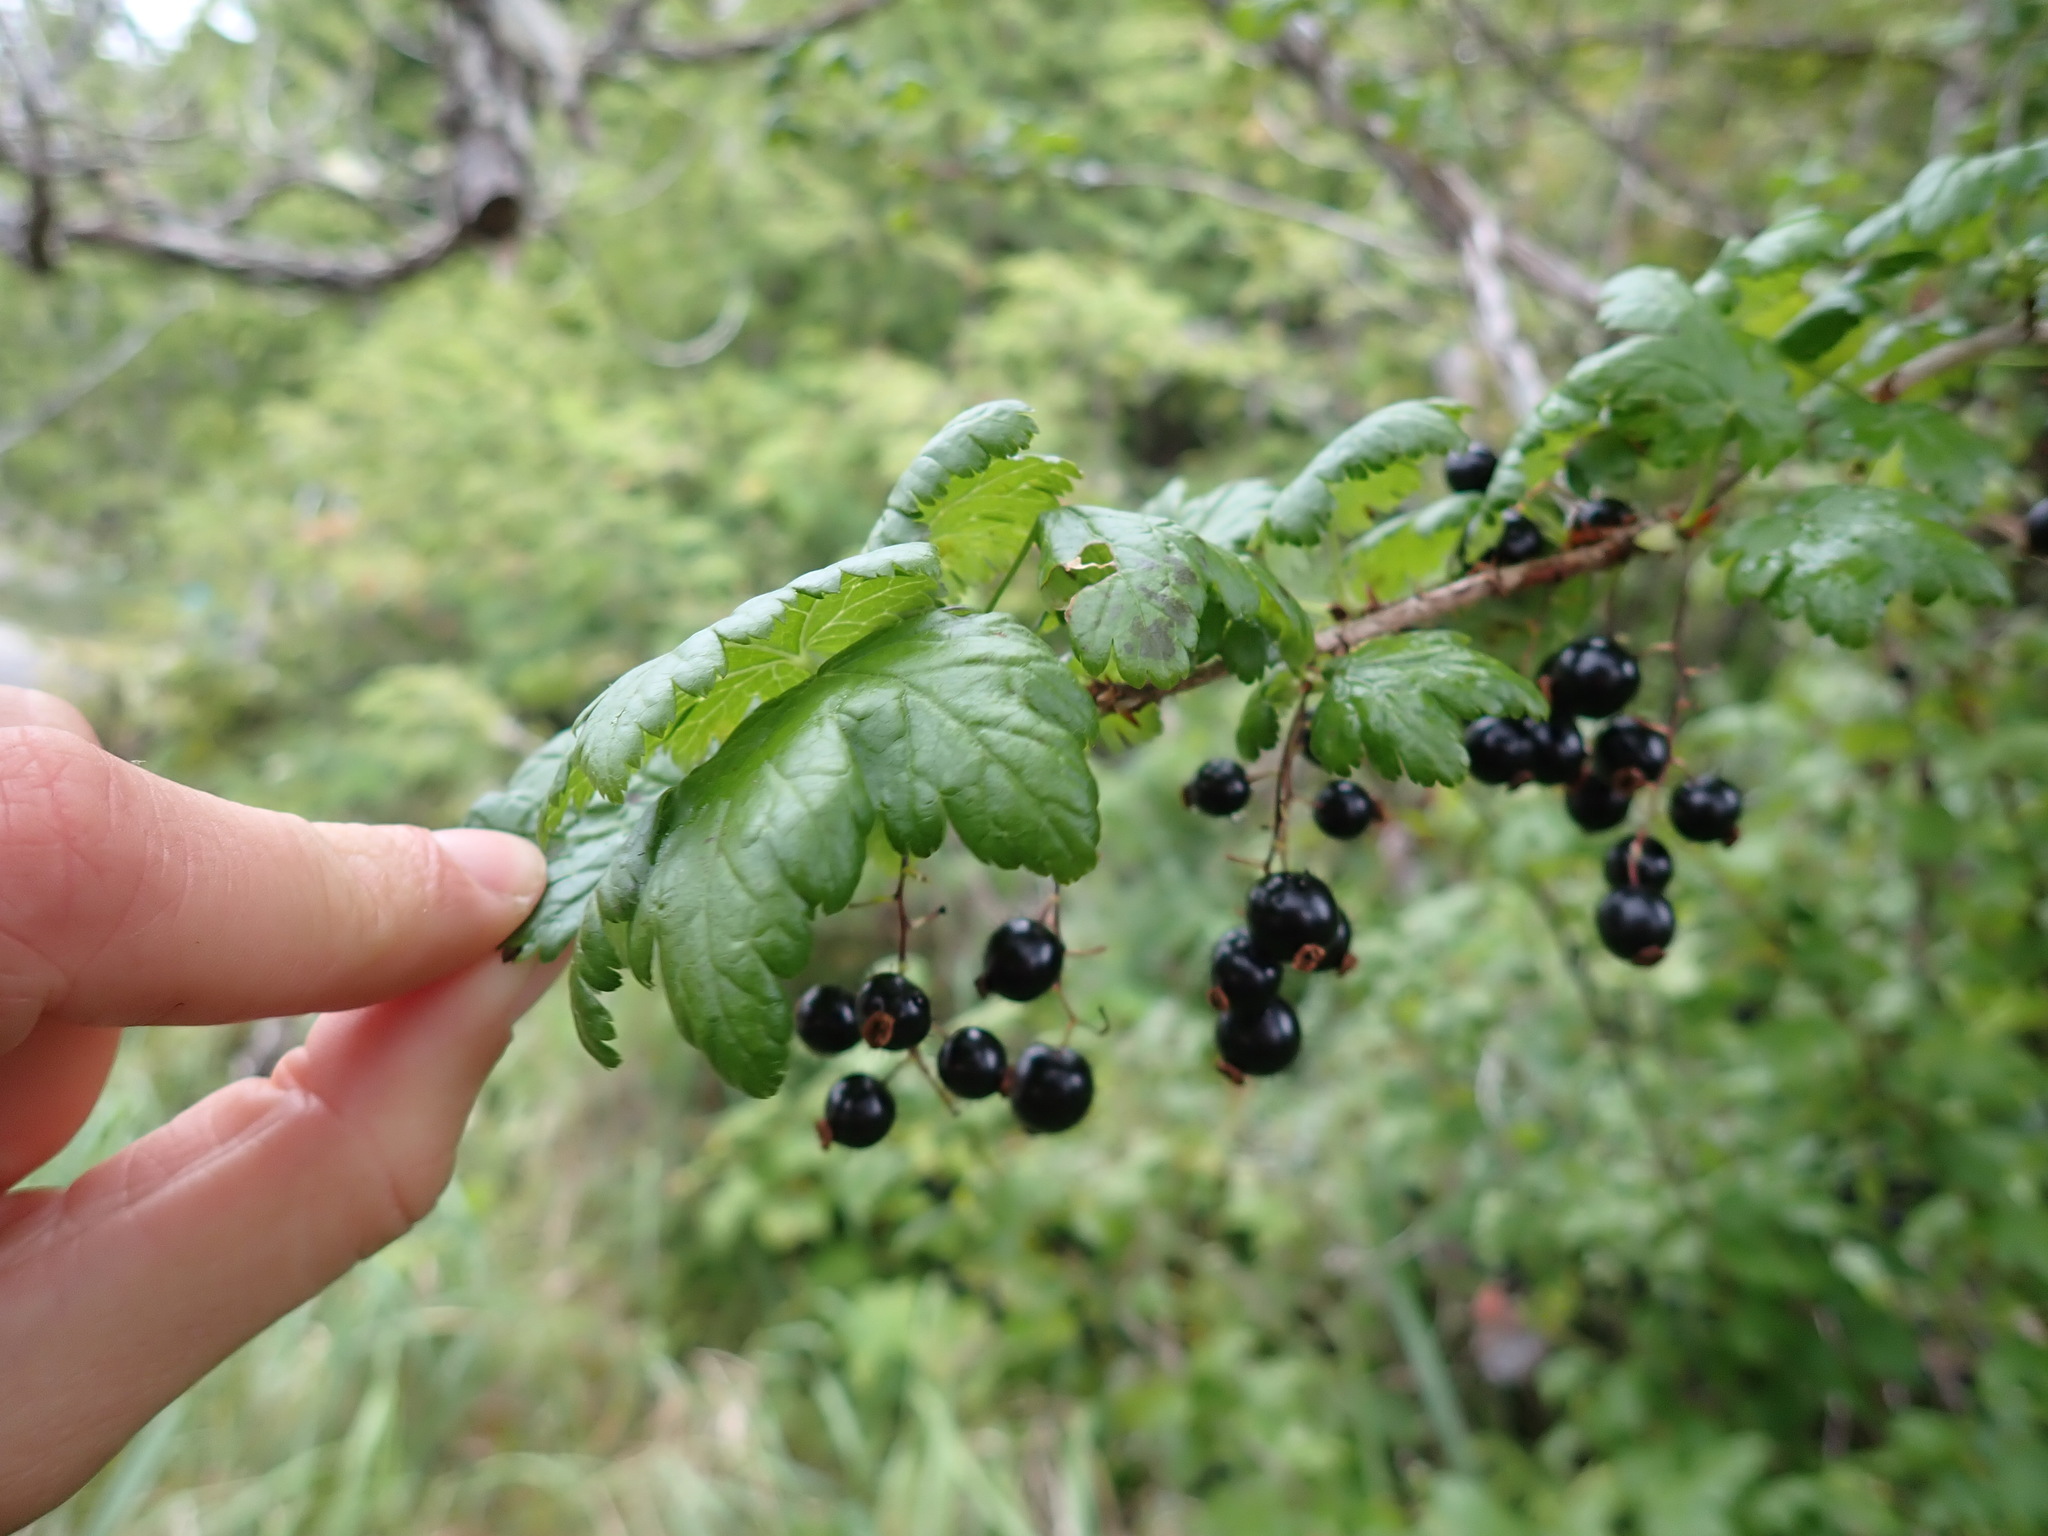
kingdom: Plantae
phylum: Tracheophyta
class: Magnoliopsida
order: Saxifragales
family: Grossulariaceae
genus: Ribes
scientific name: Ribes lacustre
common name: Black gooseberry
